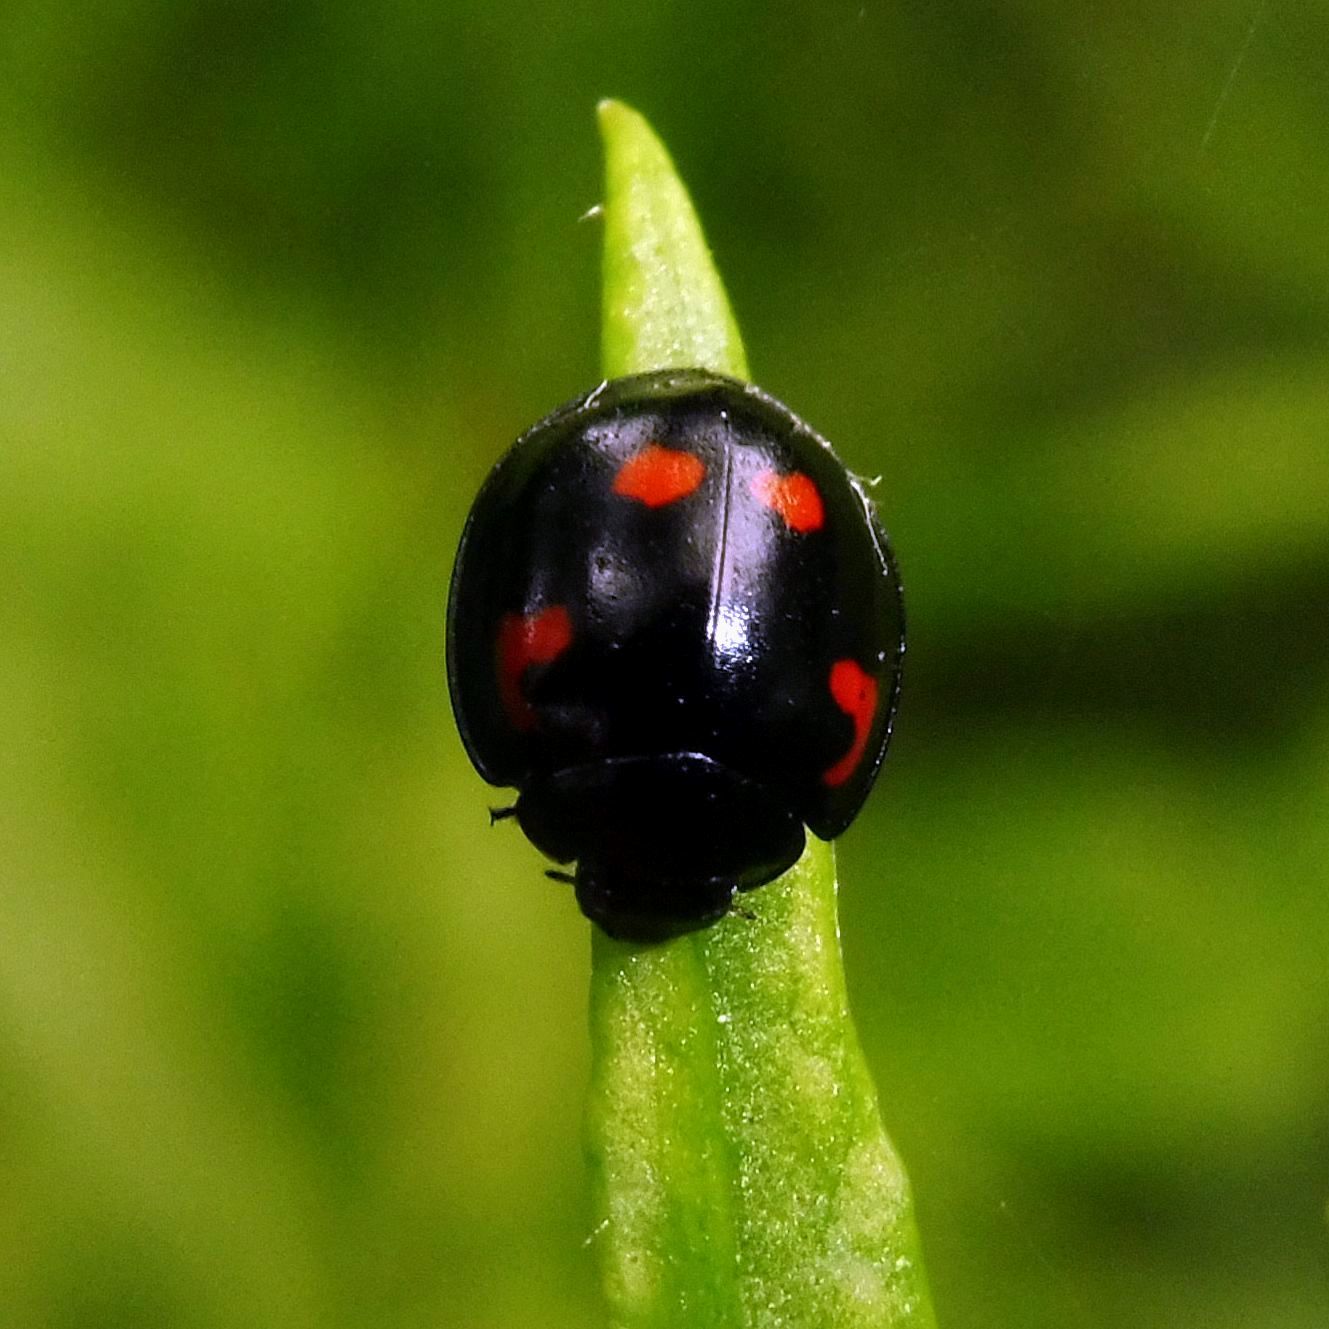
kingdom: Animalia
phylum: Arthropoda
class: Insecta
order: Coleoptera
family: Coccinellidae
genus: Brumus
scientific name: Brumus quadripustulatus
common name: Ladybird beetle
